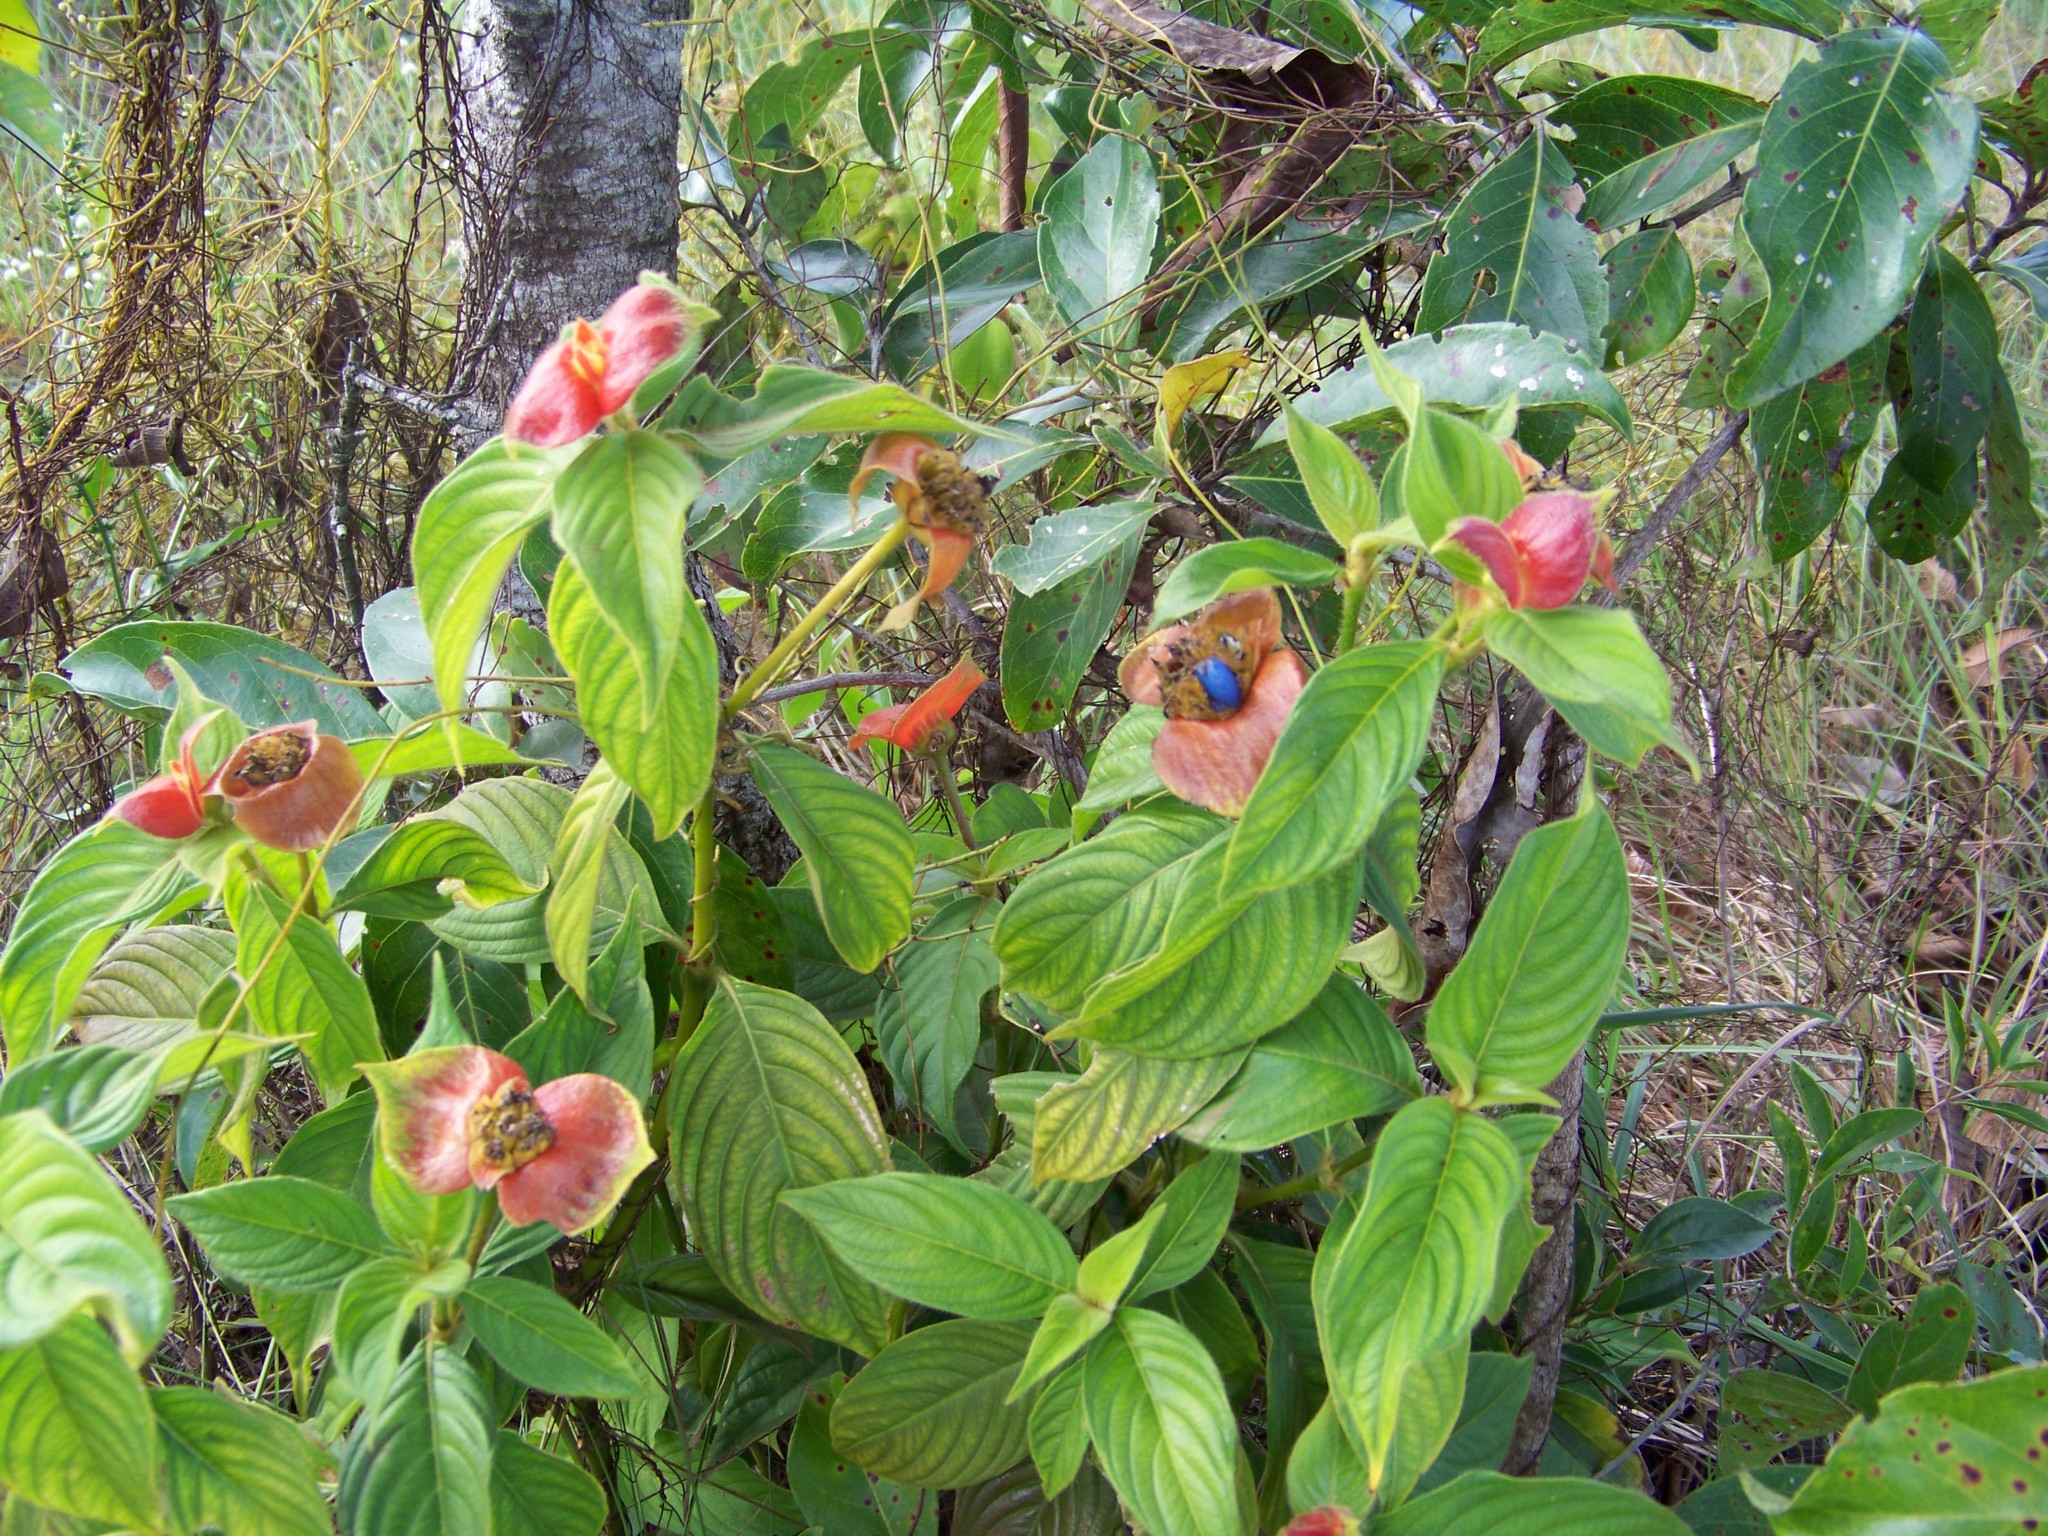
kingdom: Plantae
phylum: Tracheophyta
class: Magnoliopsida
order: Gentianales
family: Rubiaceae
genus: Palicourea
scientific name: Palicourea tomentosa
